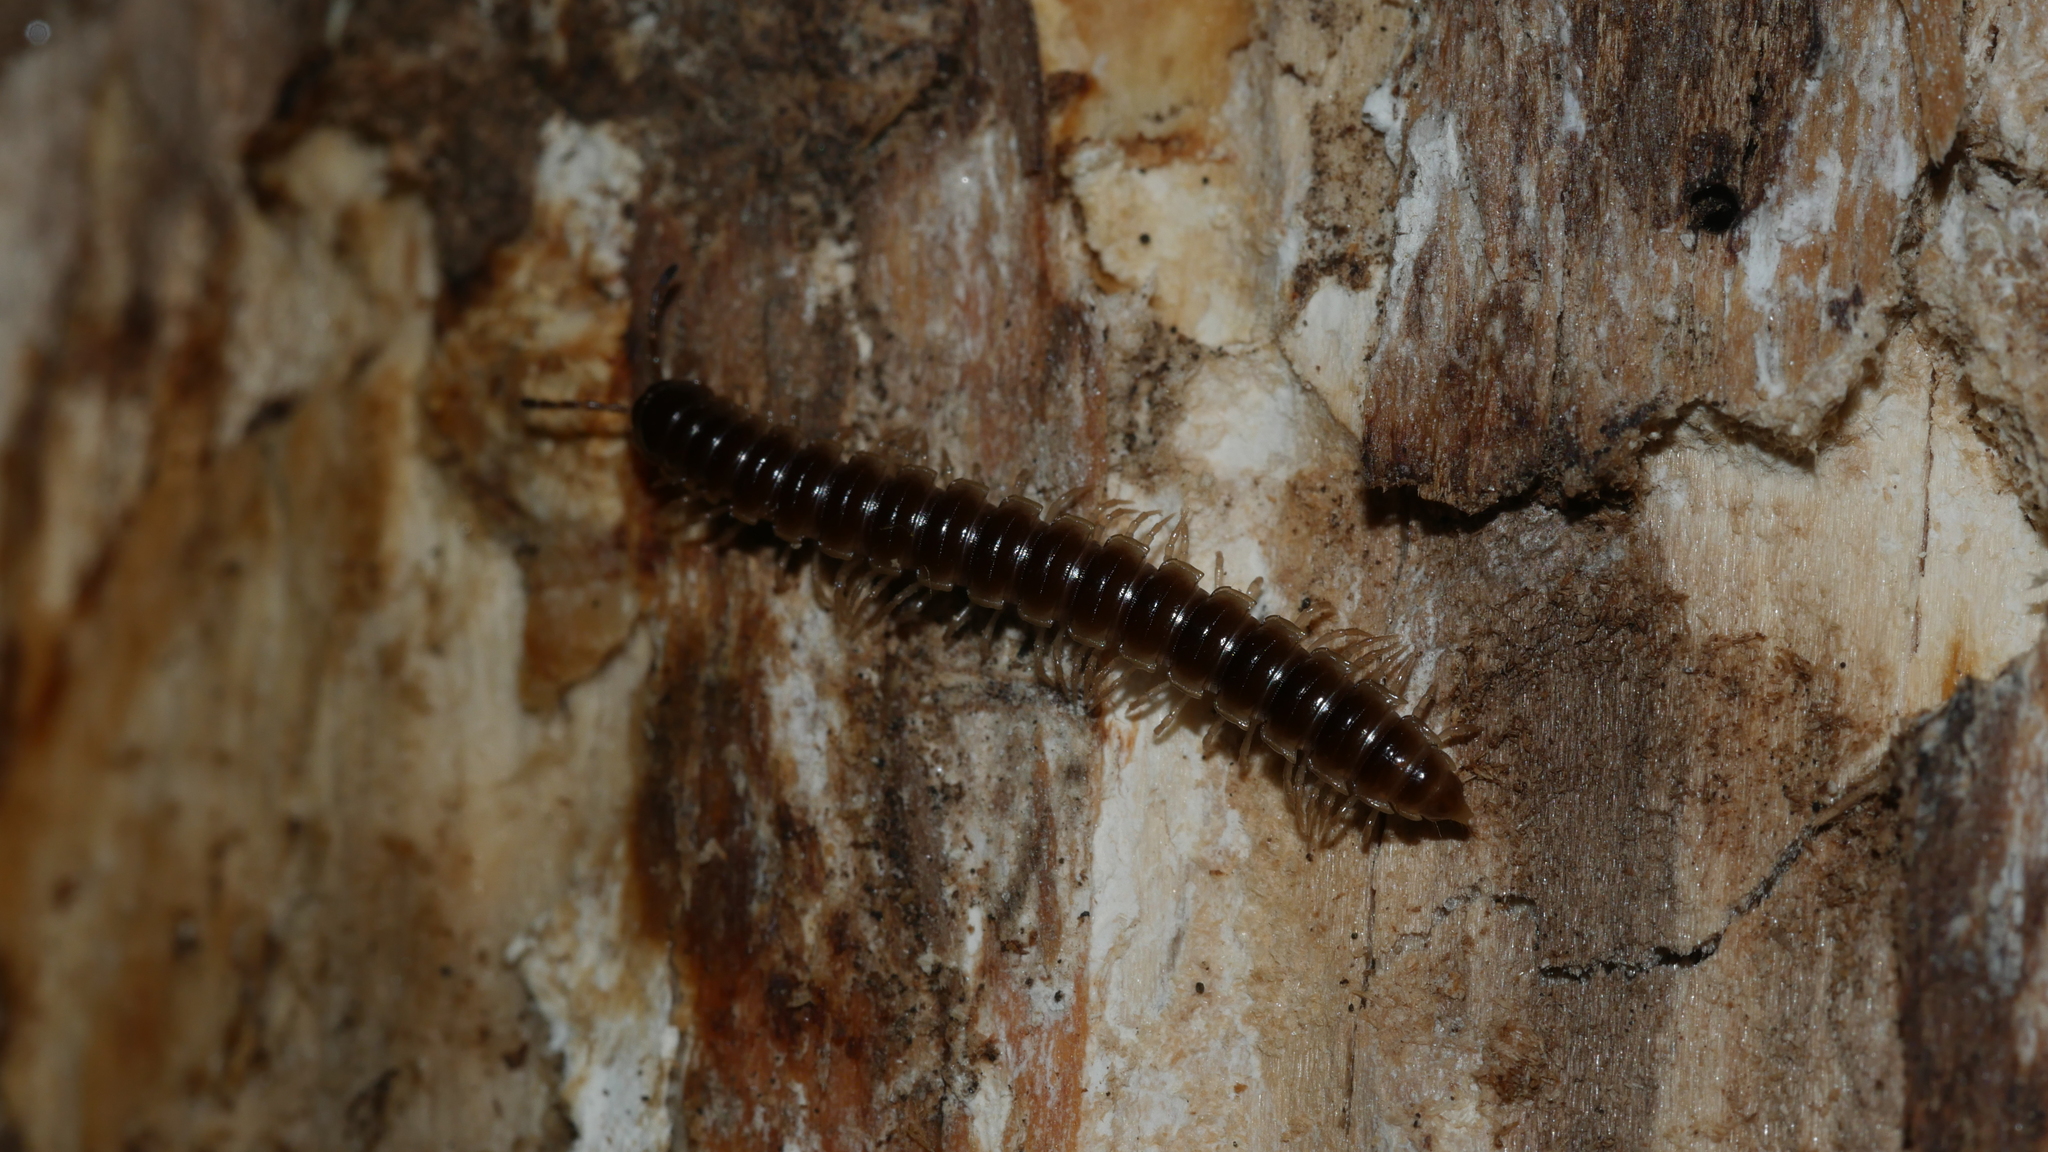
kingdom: Animalia
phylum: Arthropoda
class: Diplopoda
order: Polydesmida
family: Paradoxosomatidae
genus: Oxidus
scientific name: Oxidus gracilis
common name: Greenhouse millipede
